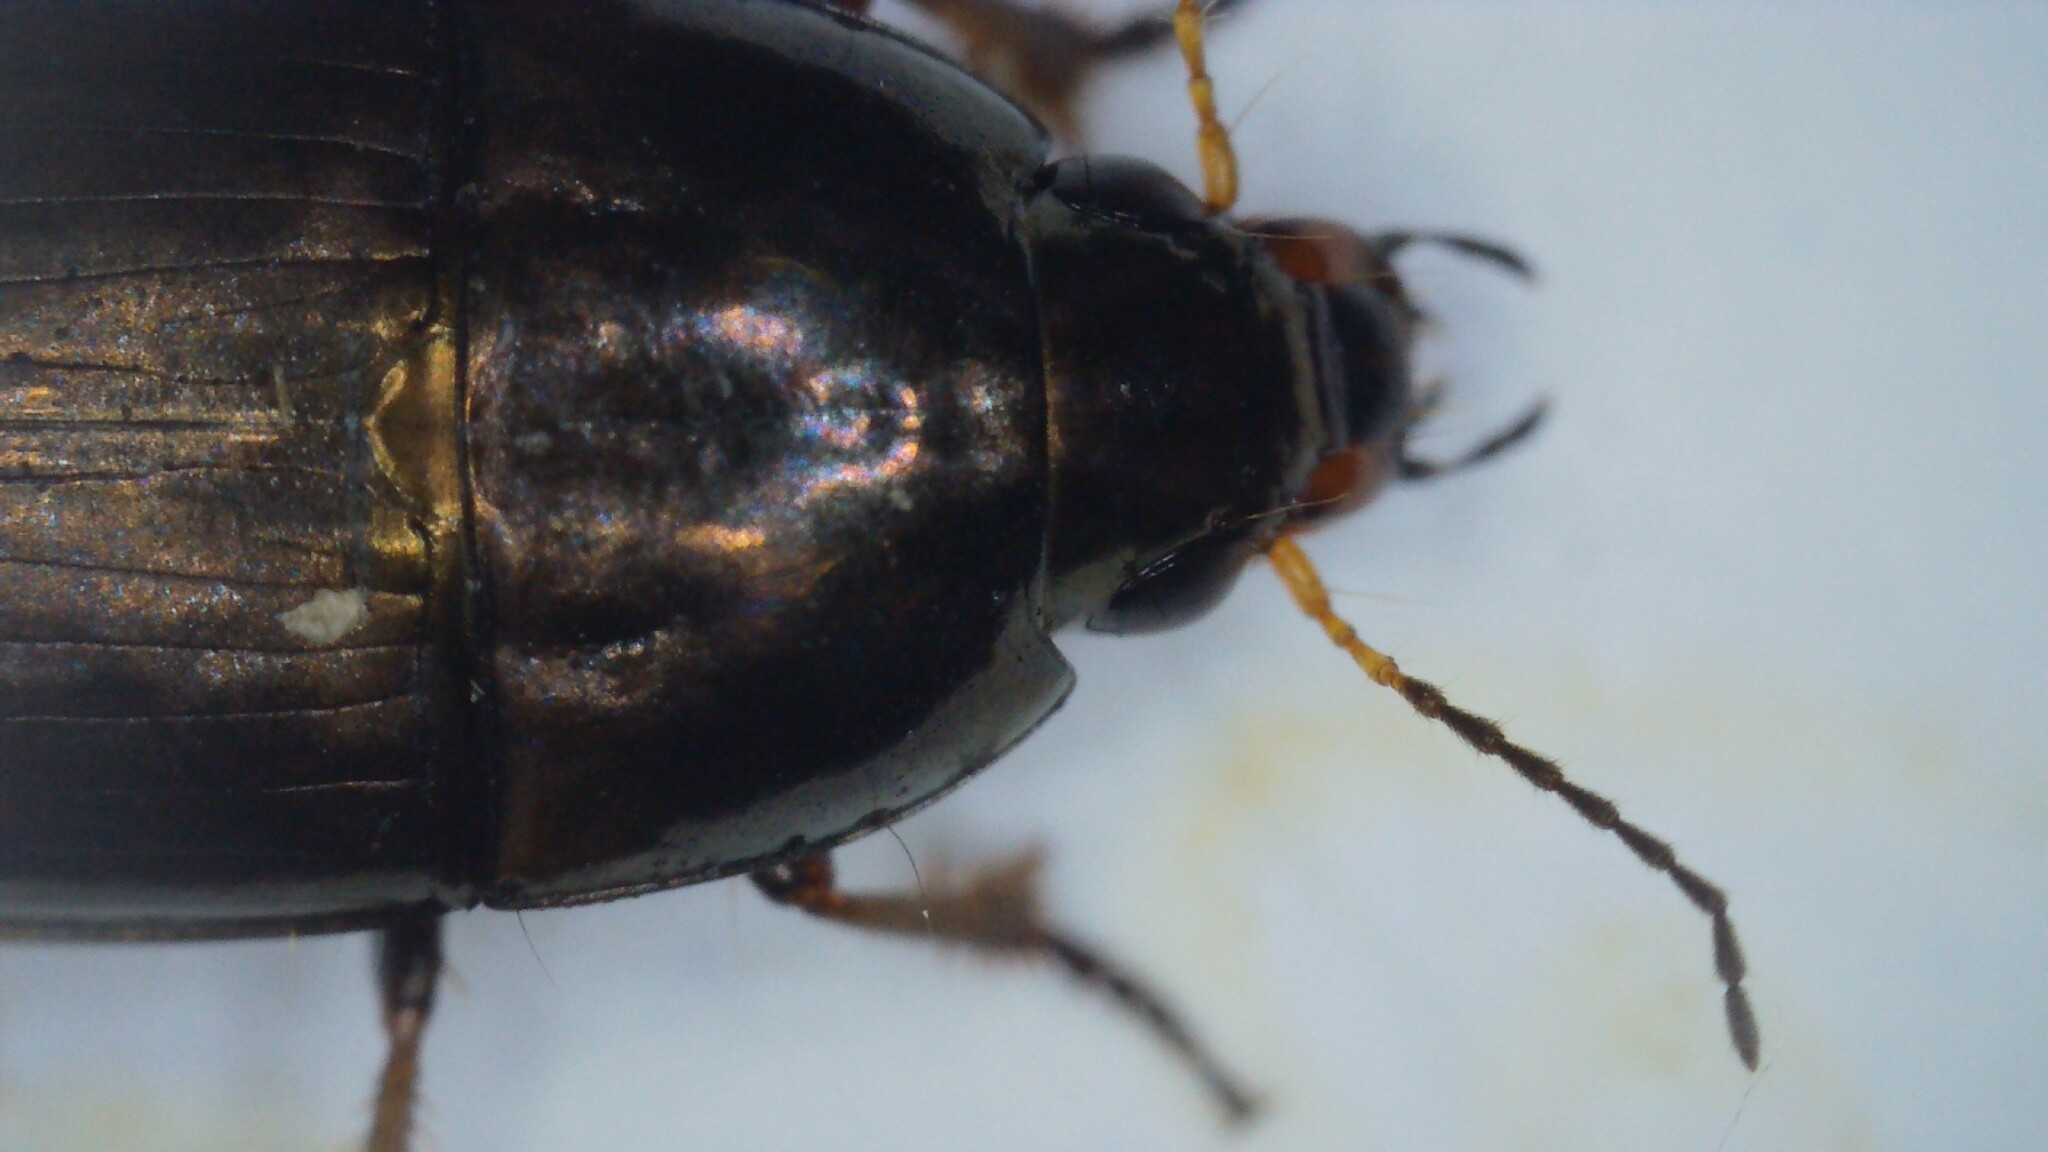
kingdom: Animalia
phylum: Arthropoda
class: Insecta
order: Coleoptera
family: Carabidae
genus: Amara
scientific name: Amara aenea
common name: Common sun beetle
